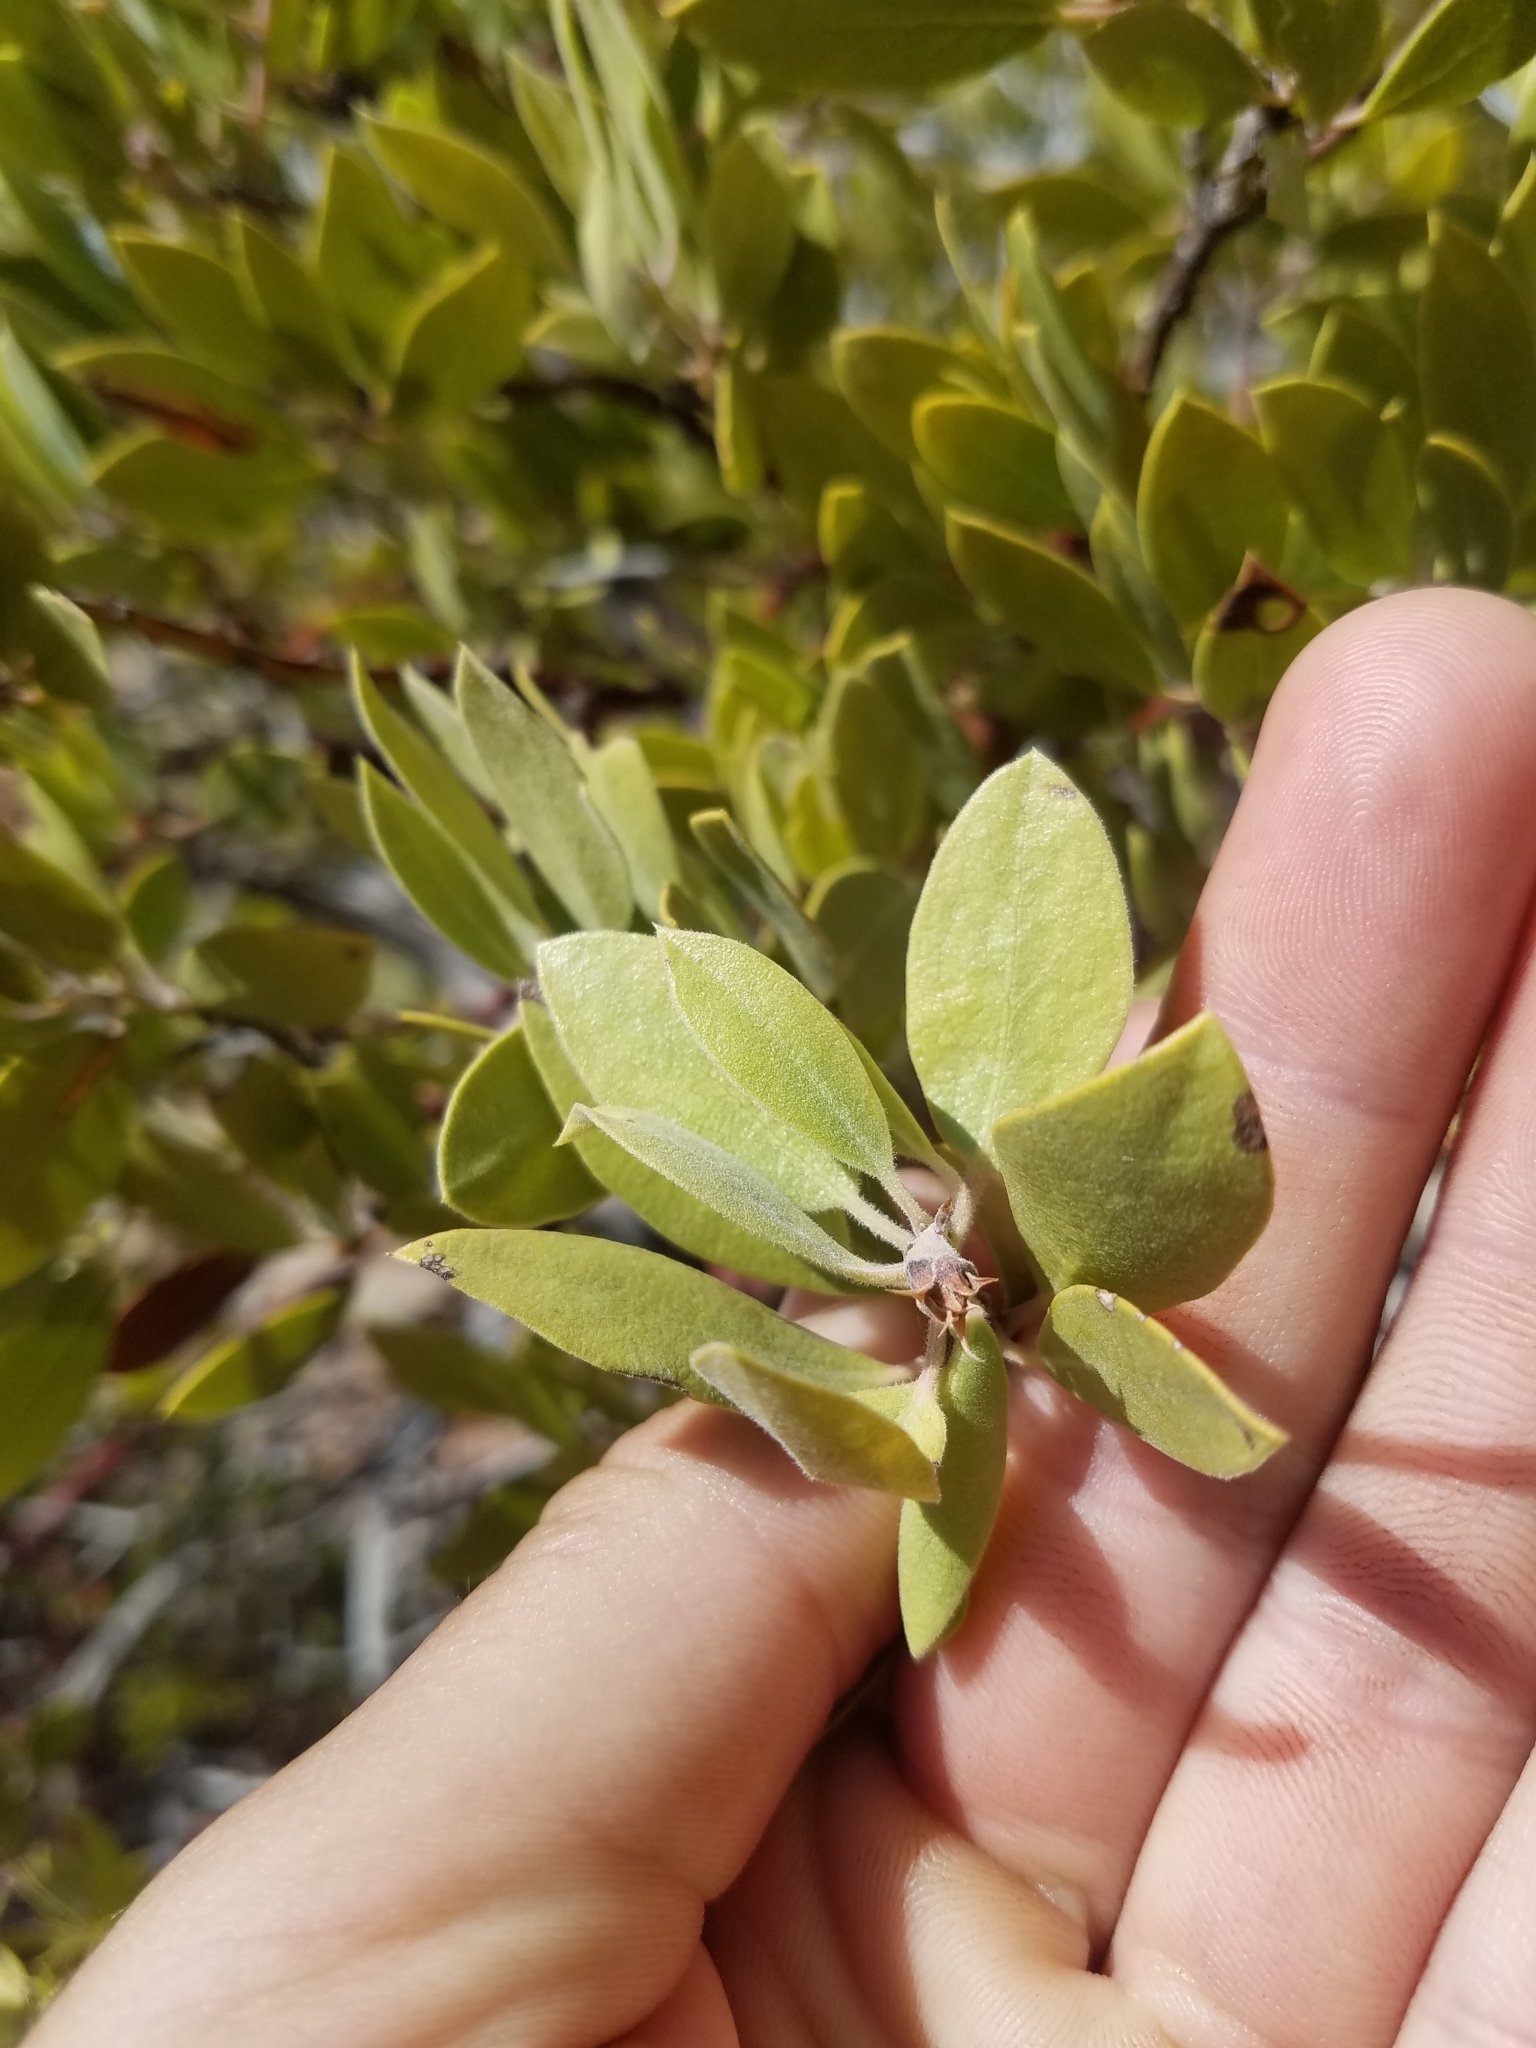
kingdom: Plantae
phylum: Tracheophyta
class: Magnoliopsida
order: Ericales
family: Ericaceae
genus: Arctostaphylos
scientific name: Arctostaphylos pungens
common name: Mexican manzanita
